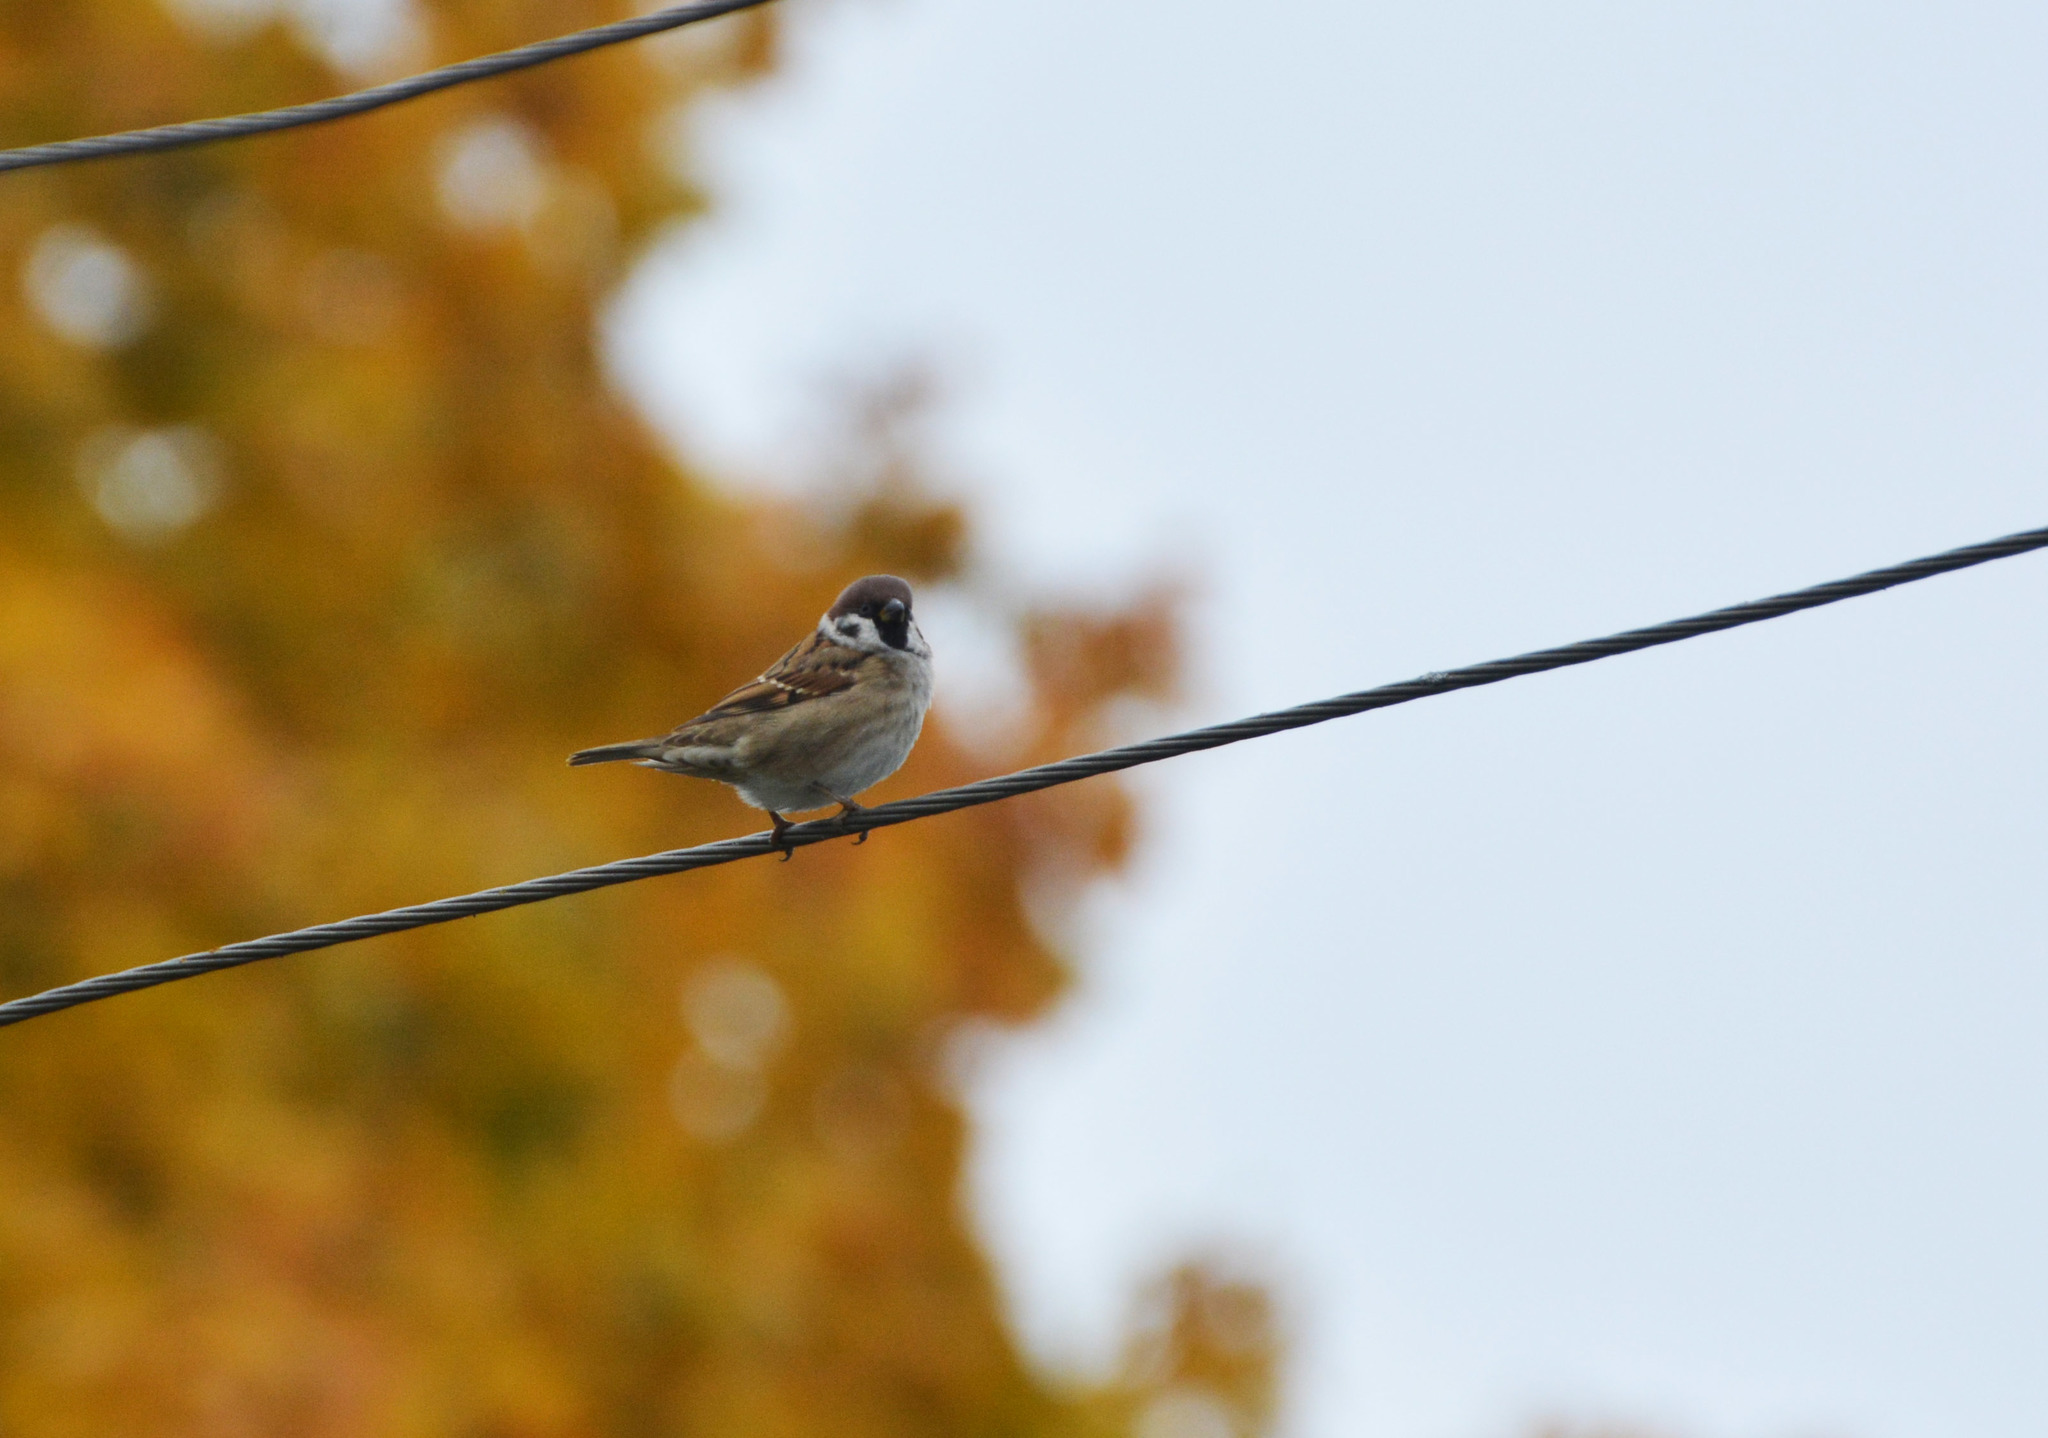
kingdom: Animalia
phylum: Chordata
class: Aves
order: Passeriformes
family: Passeridae
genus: Passer
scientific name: Passer montanus
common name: Eurasian tree sparrow
